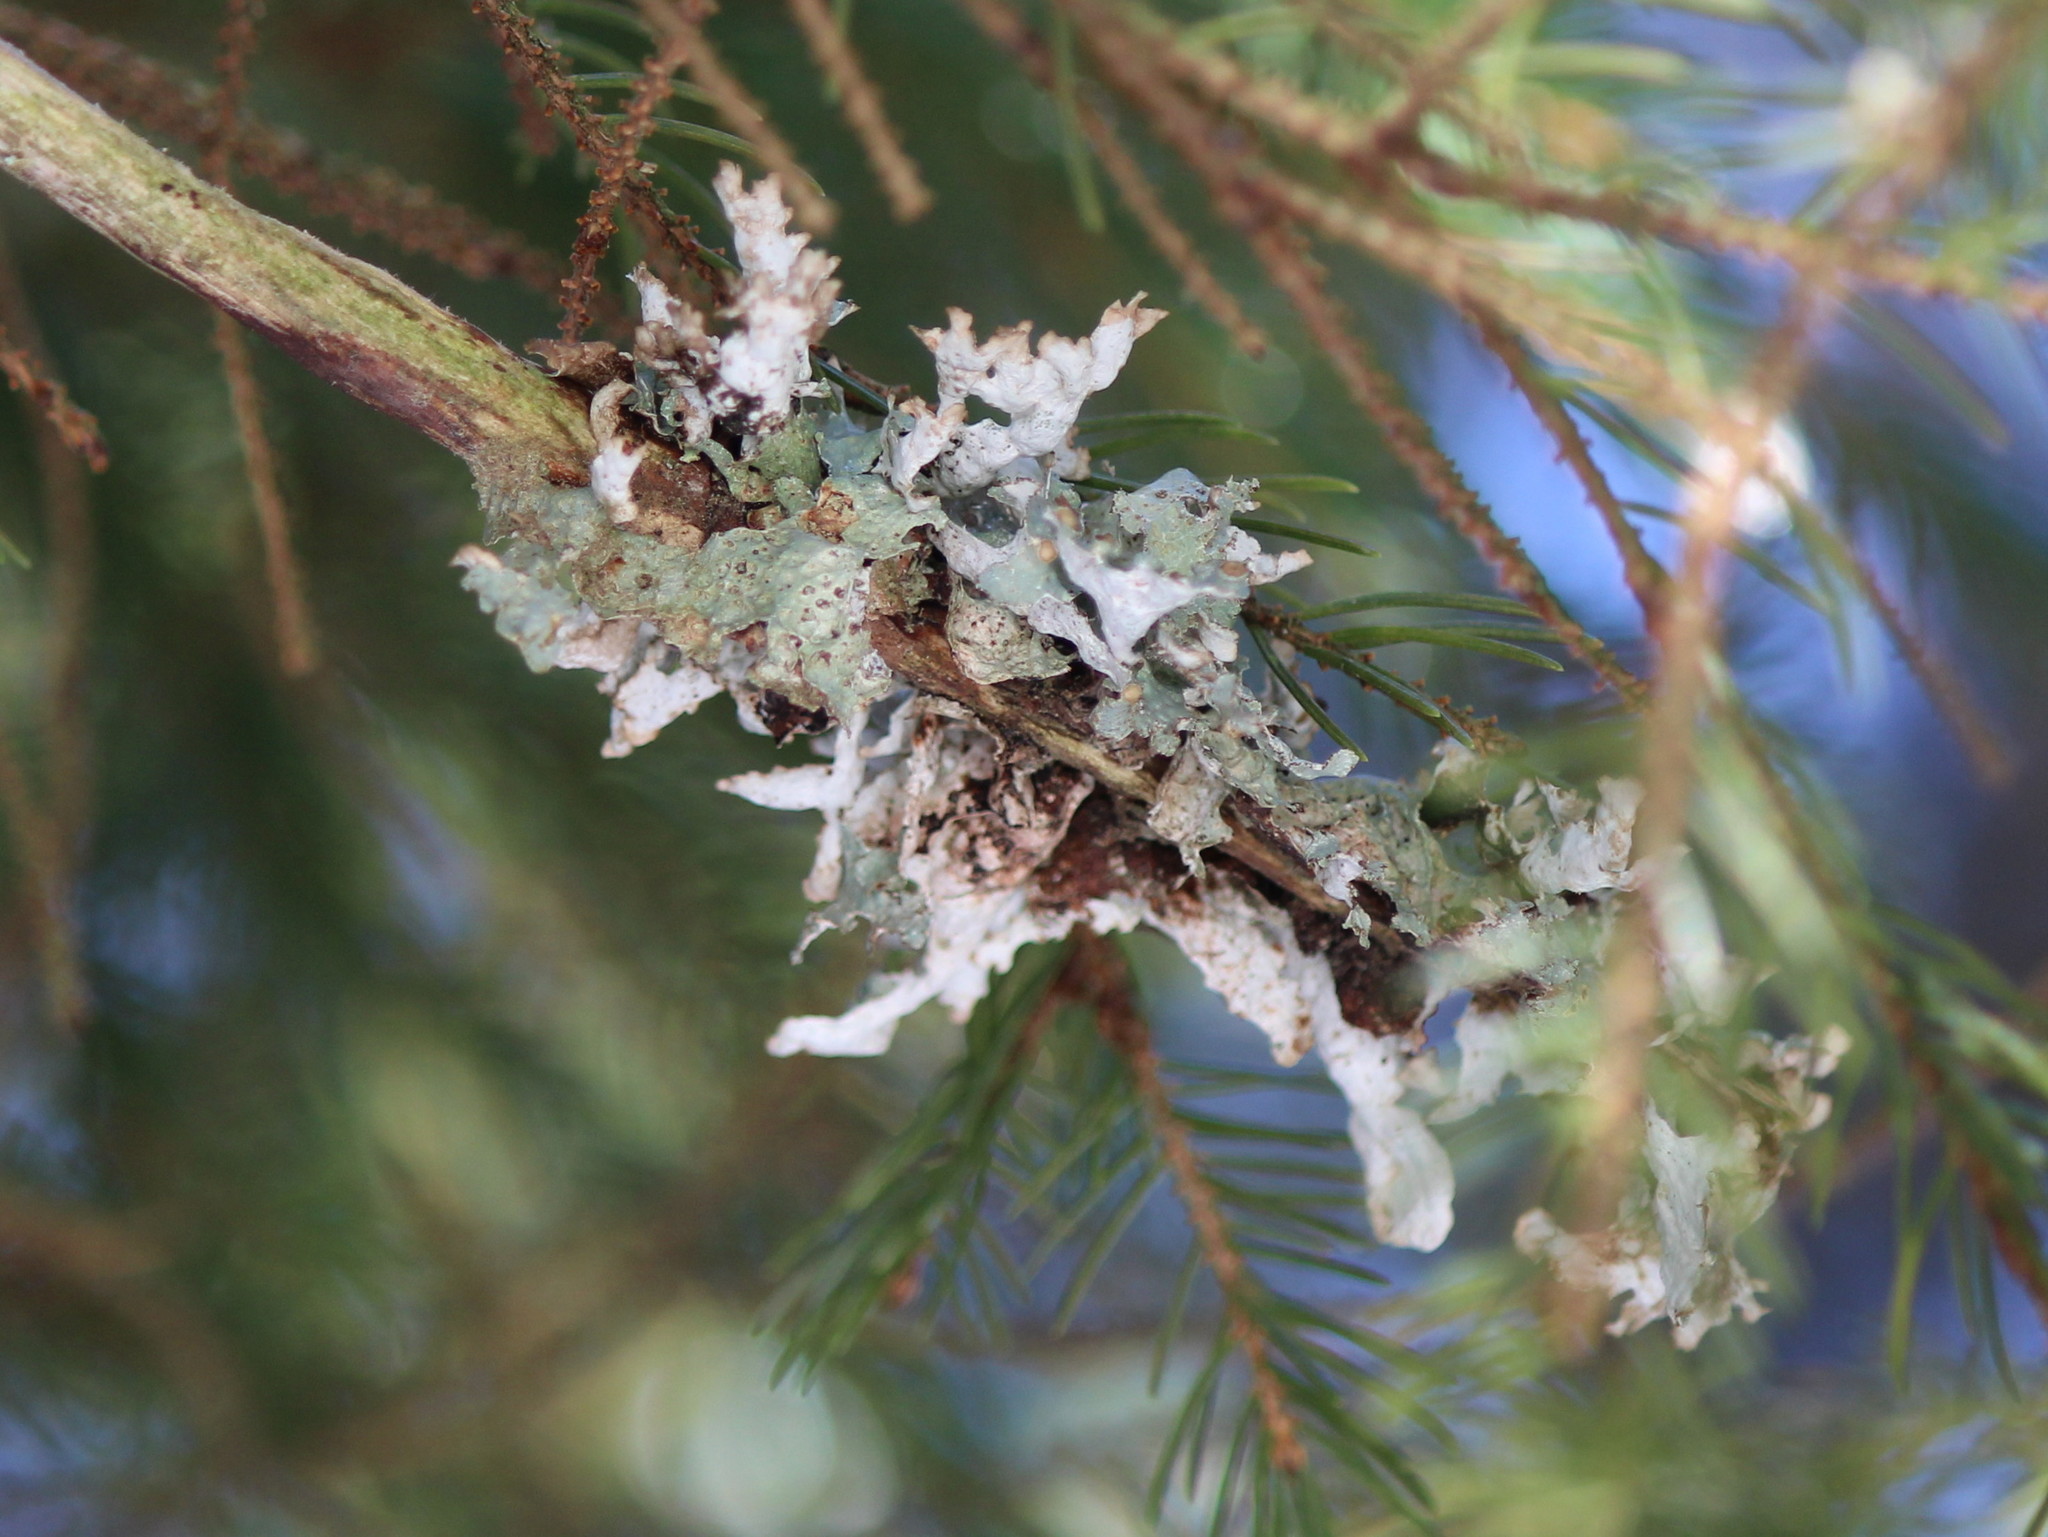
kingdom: Fungi
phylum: Ascomycota
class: Lecanoromycetes
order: Lecanorales
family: Parmeliaceae
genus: Platismatia
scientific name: Platismatia glauca
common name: Varied rag lichen
